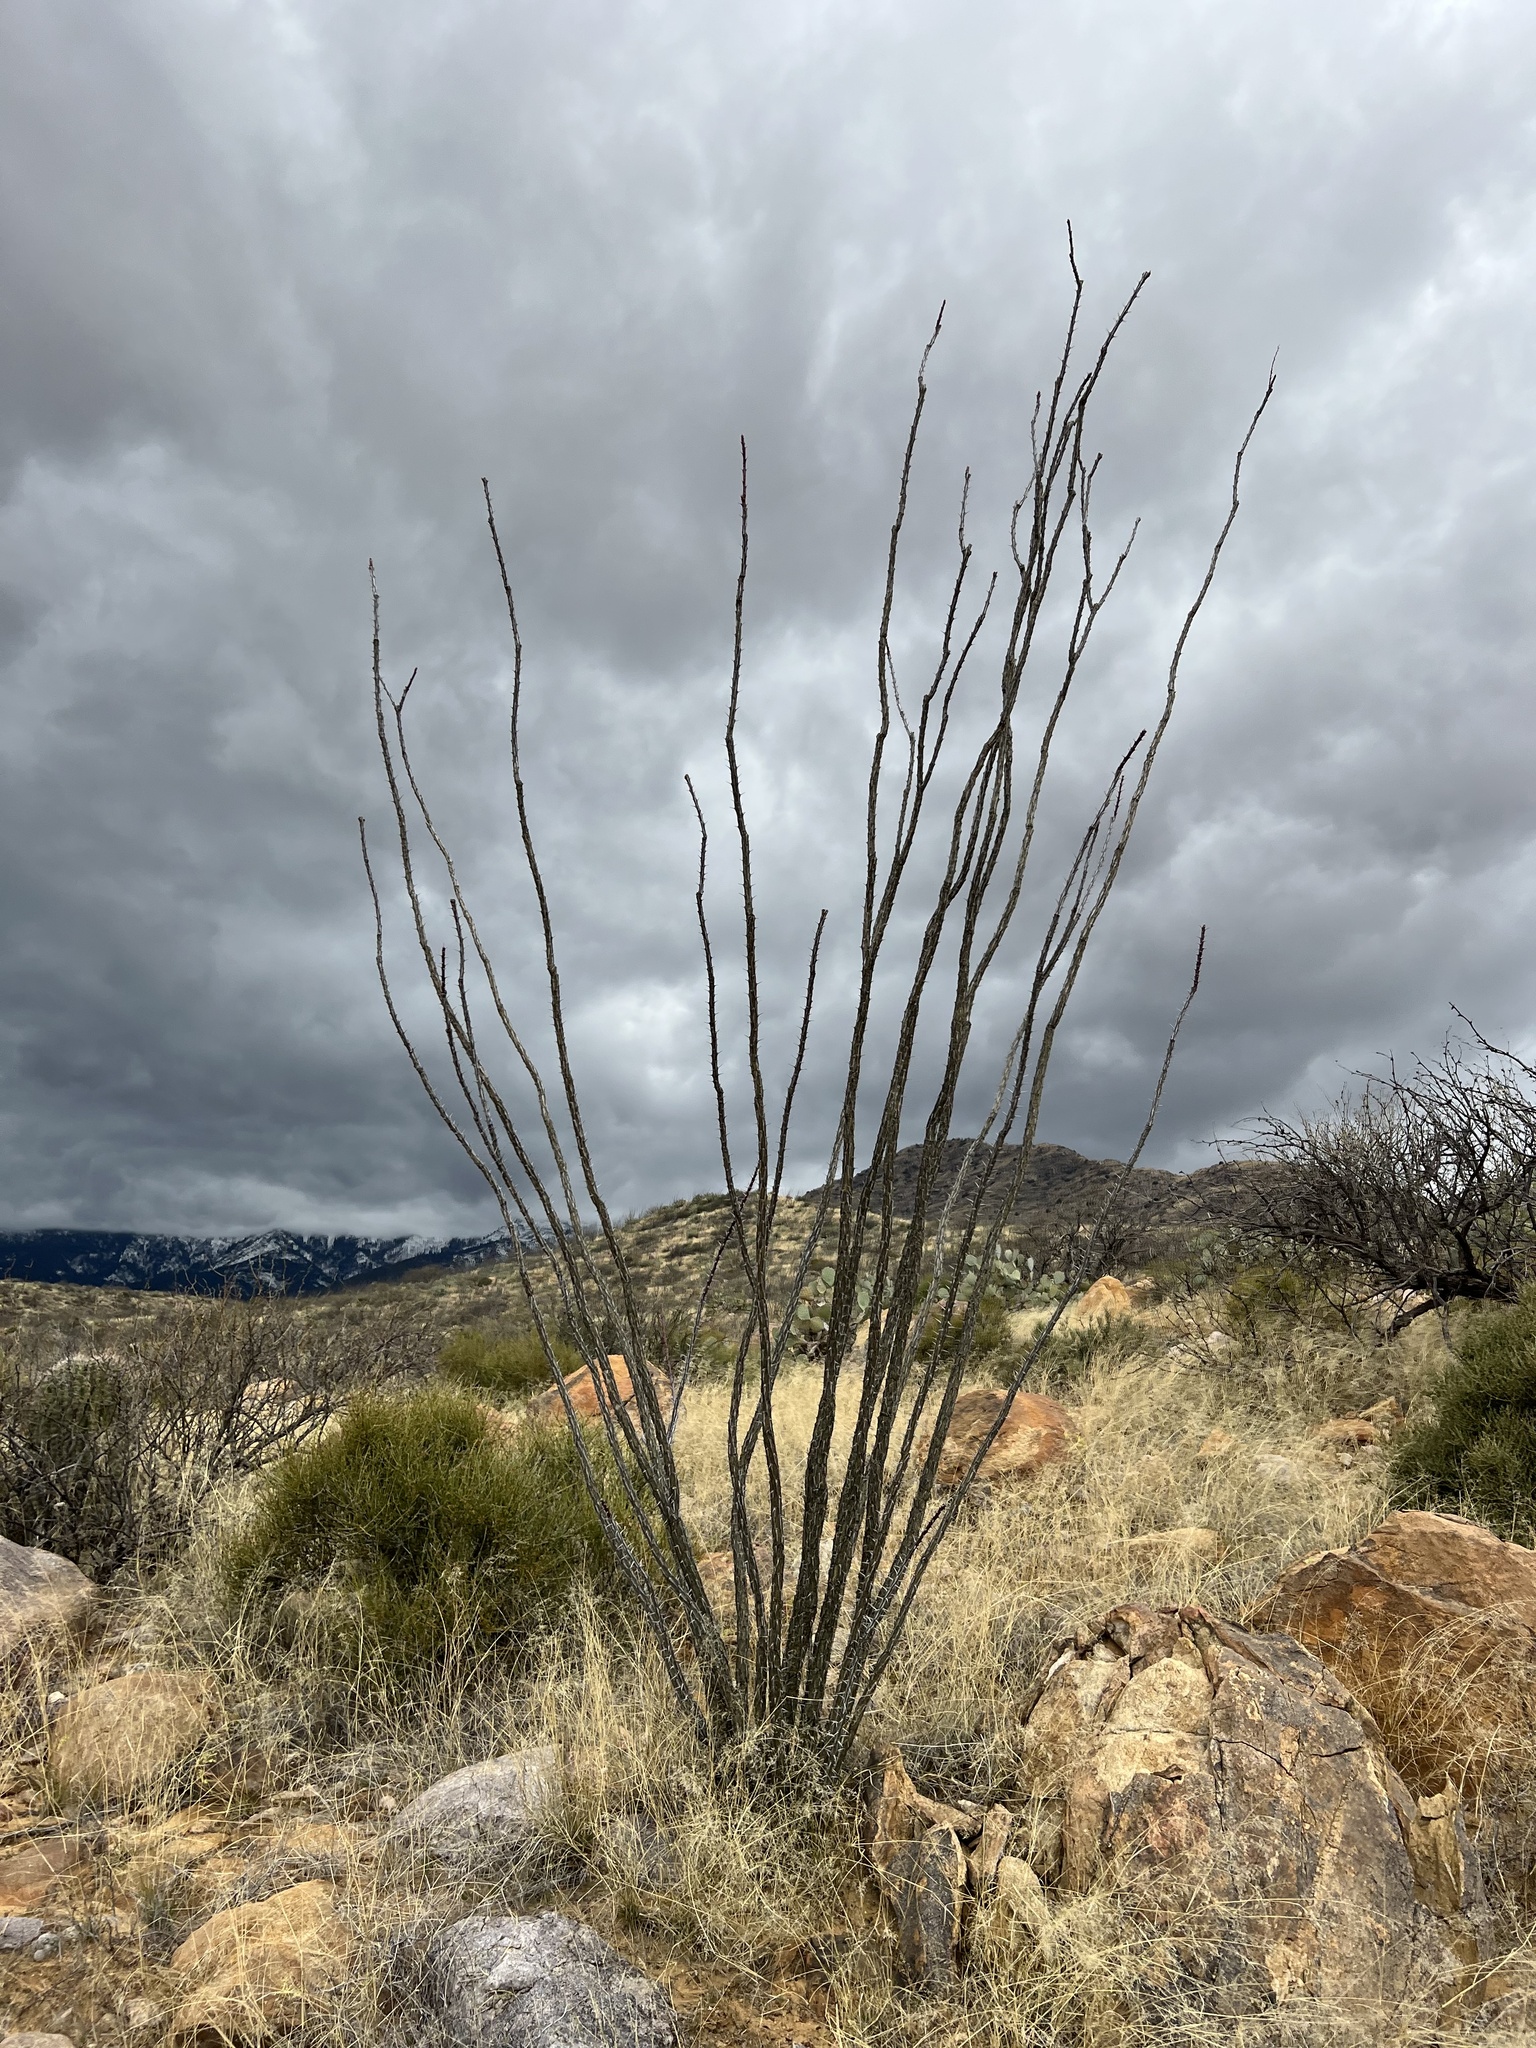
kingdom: Plantae
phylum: Tracheophyta
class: Magnoliopsida
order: Ericales
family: Fouquieriaceae
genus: Fouquieria
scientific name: Fouquieria splendens
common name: Vine-cactus
